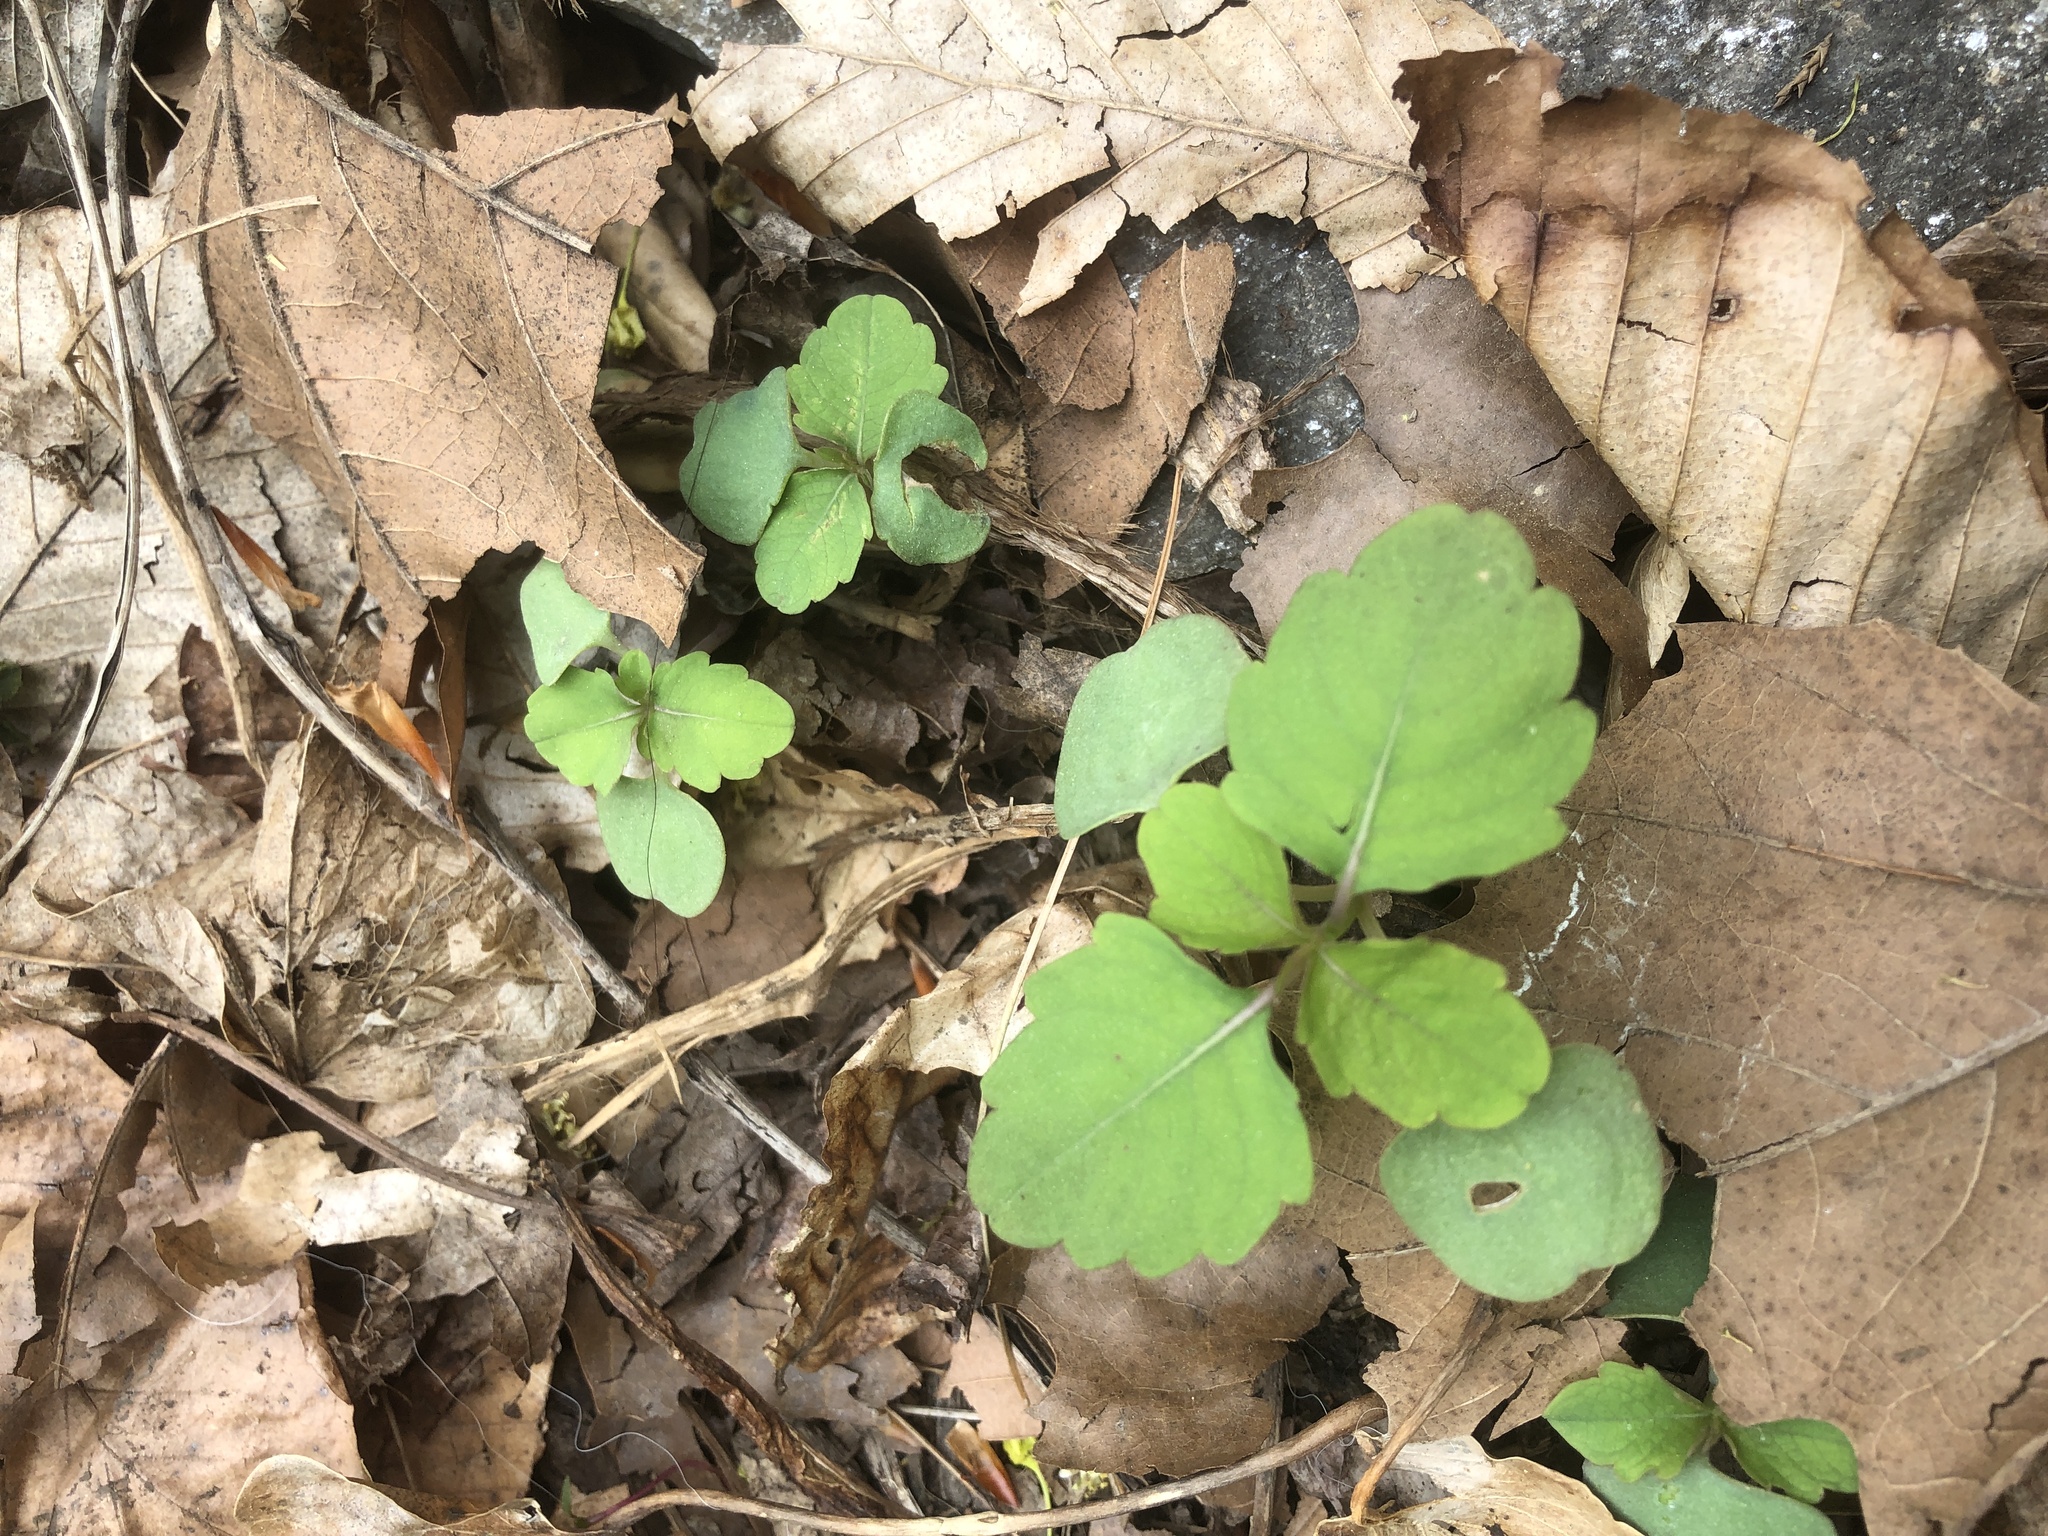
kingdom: Plantae
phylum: Tracheophyta
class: Magnoliopsida
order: Ericales
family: Balsaminaceae
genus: Impatiens
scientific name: Impatiens
